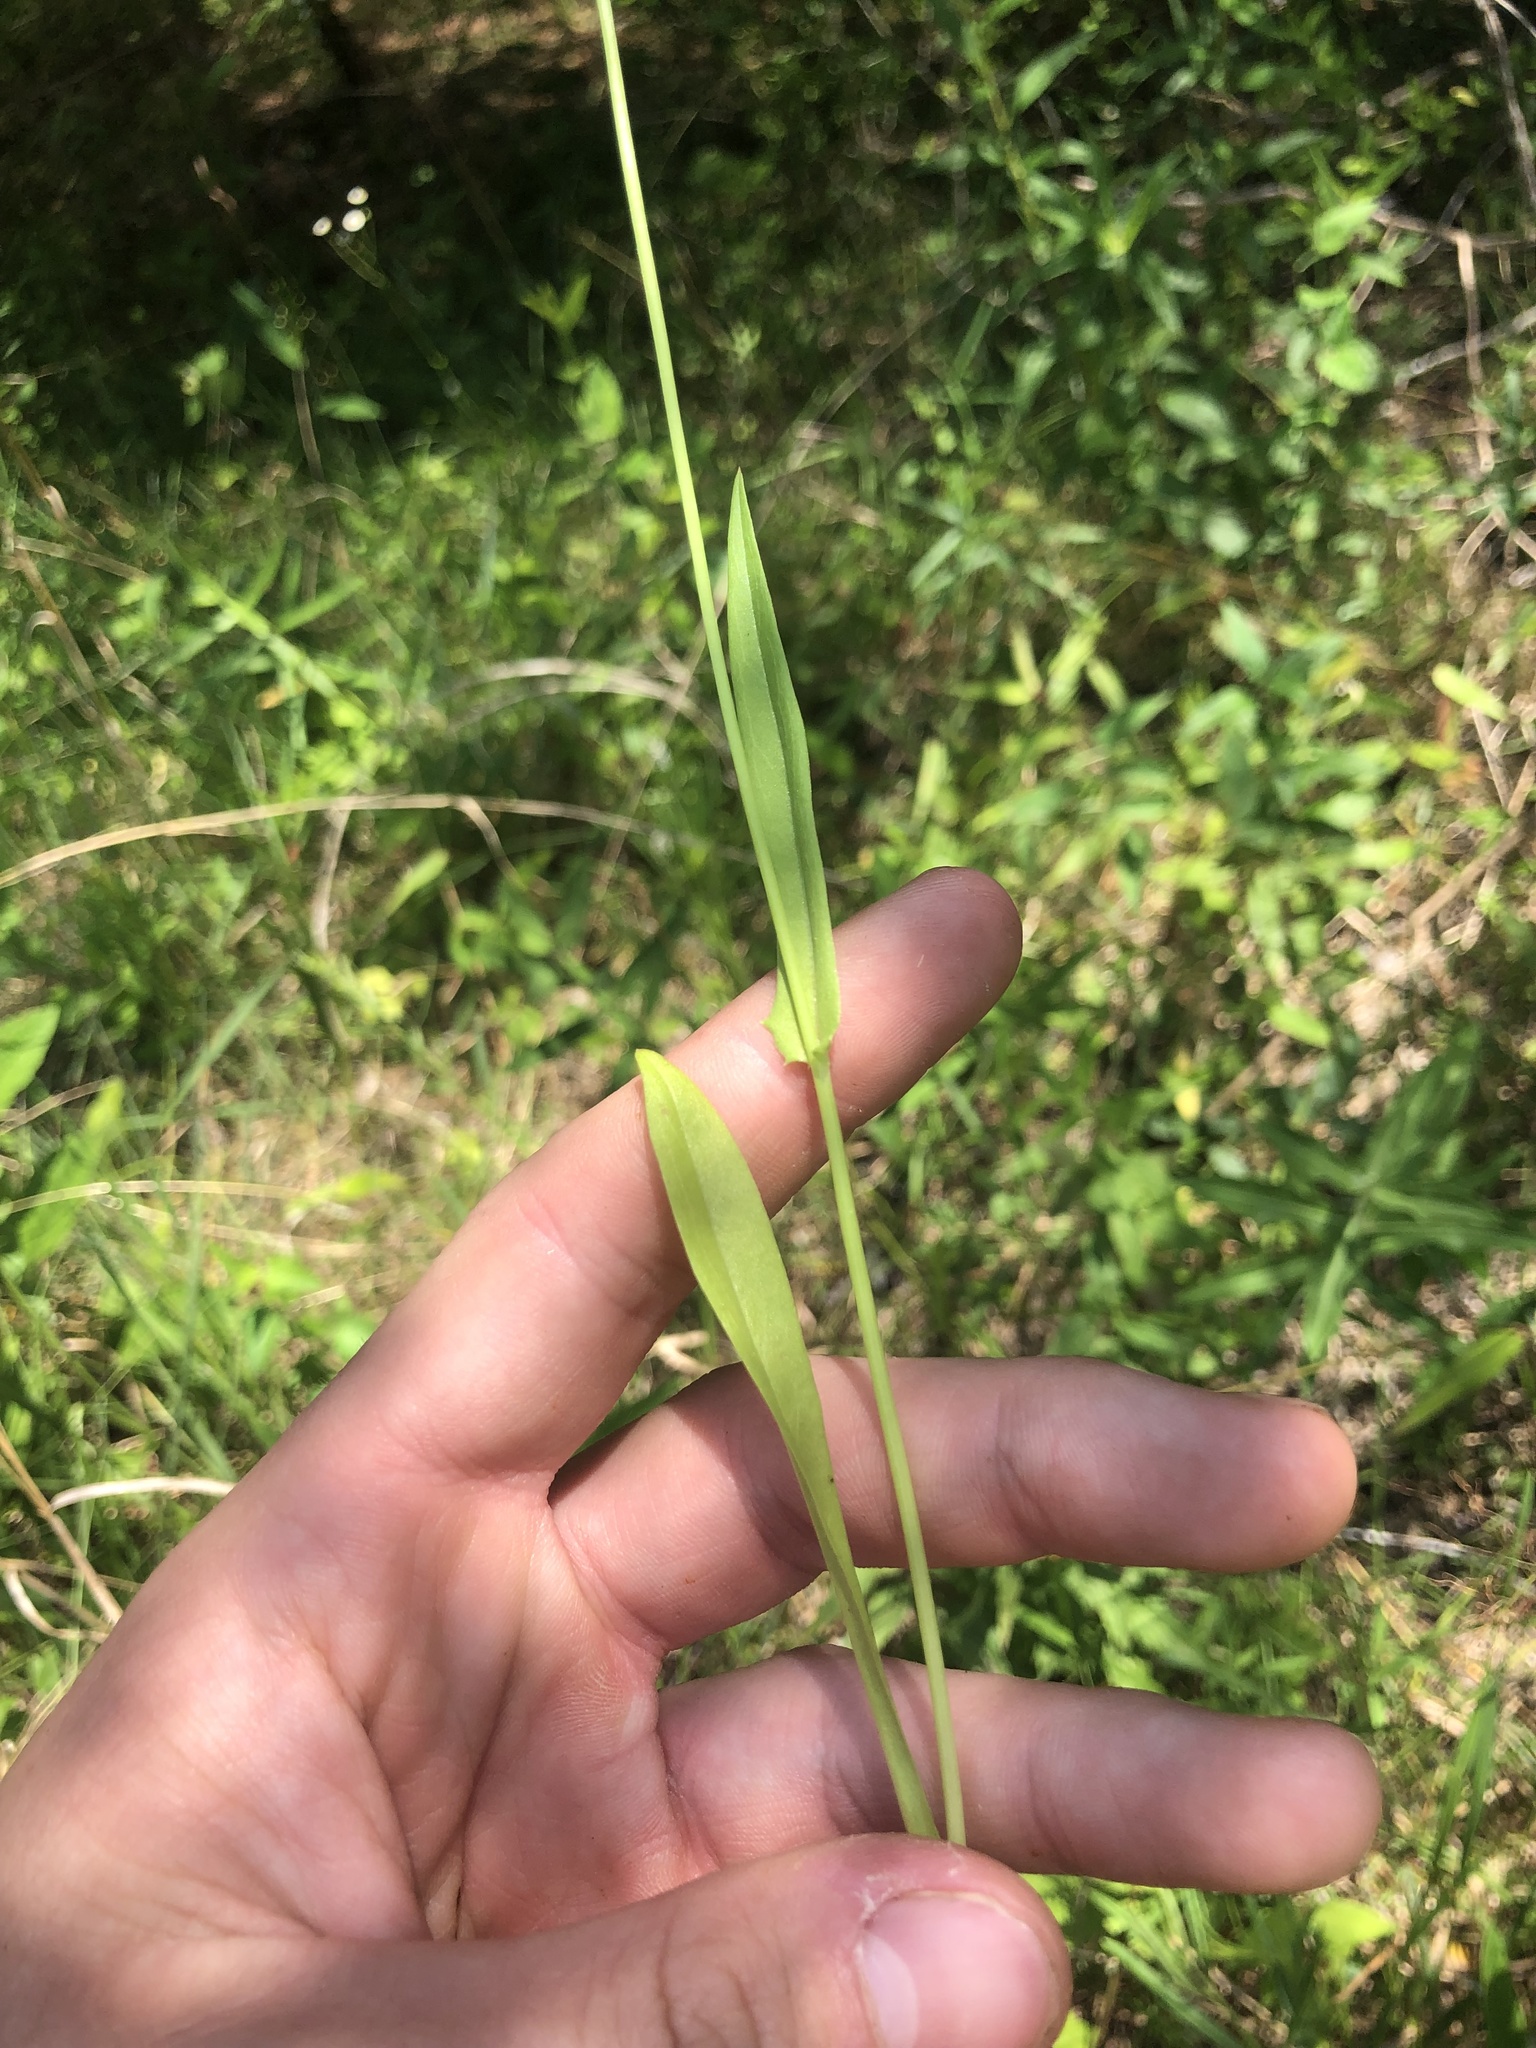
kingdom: Plantae
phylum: Tracheophyta
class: Magnoliopsida
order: Asterales
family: Asteraceae
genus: Pyrrhopappus
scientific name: Pyrrhopappus carolinianus
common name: Carolina desert-chicory
